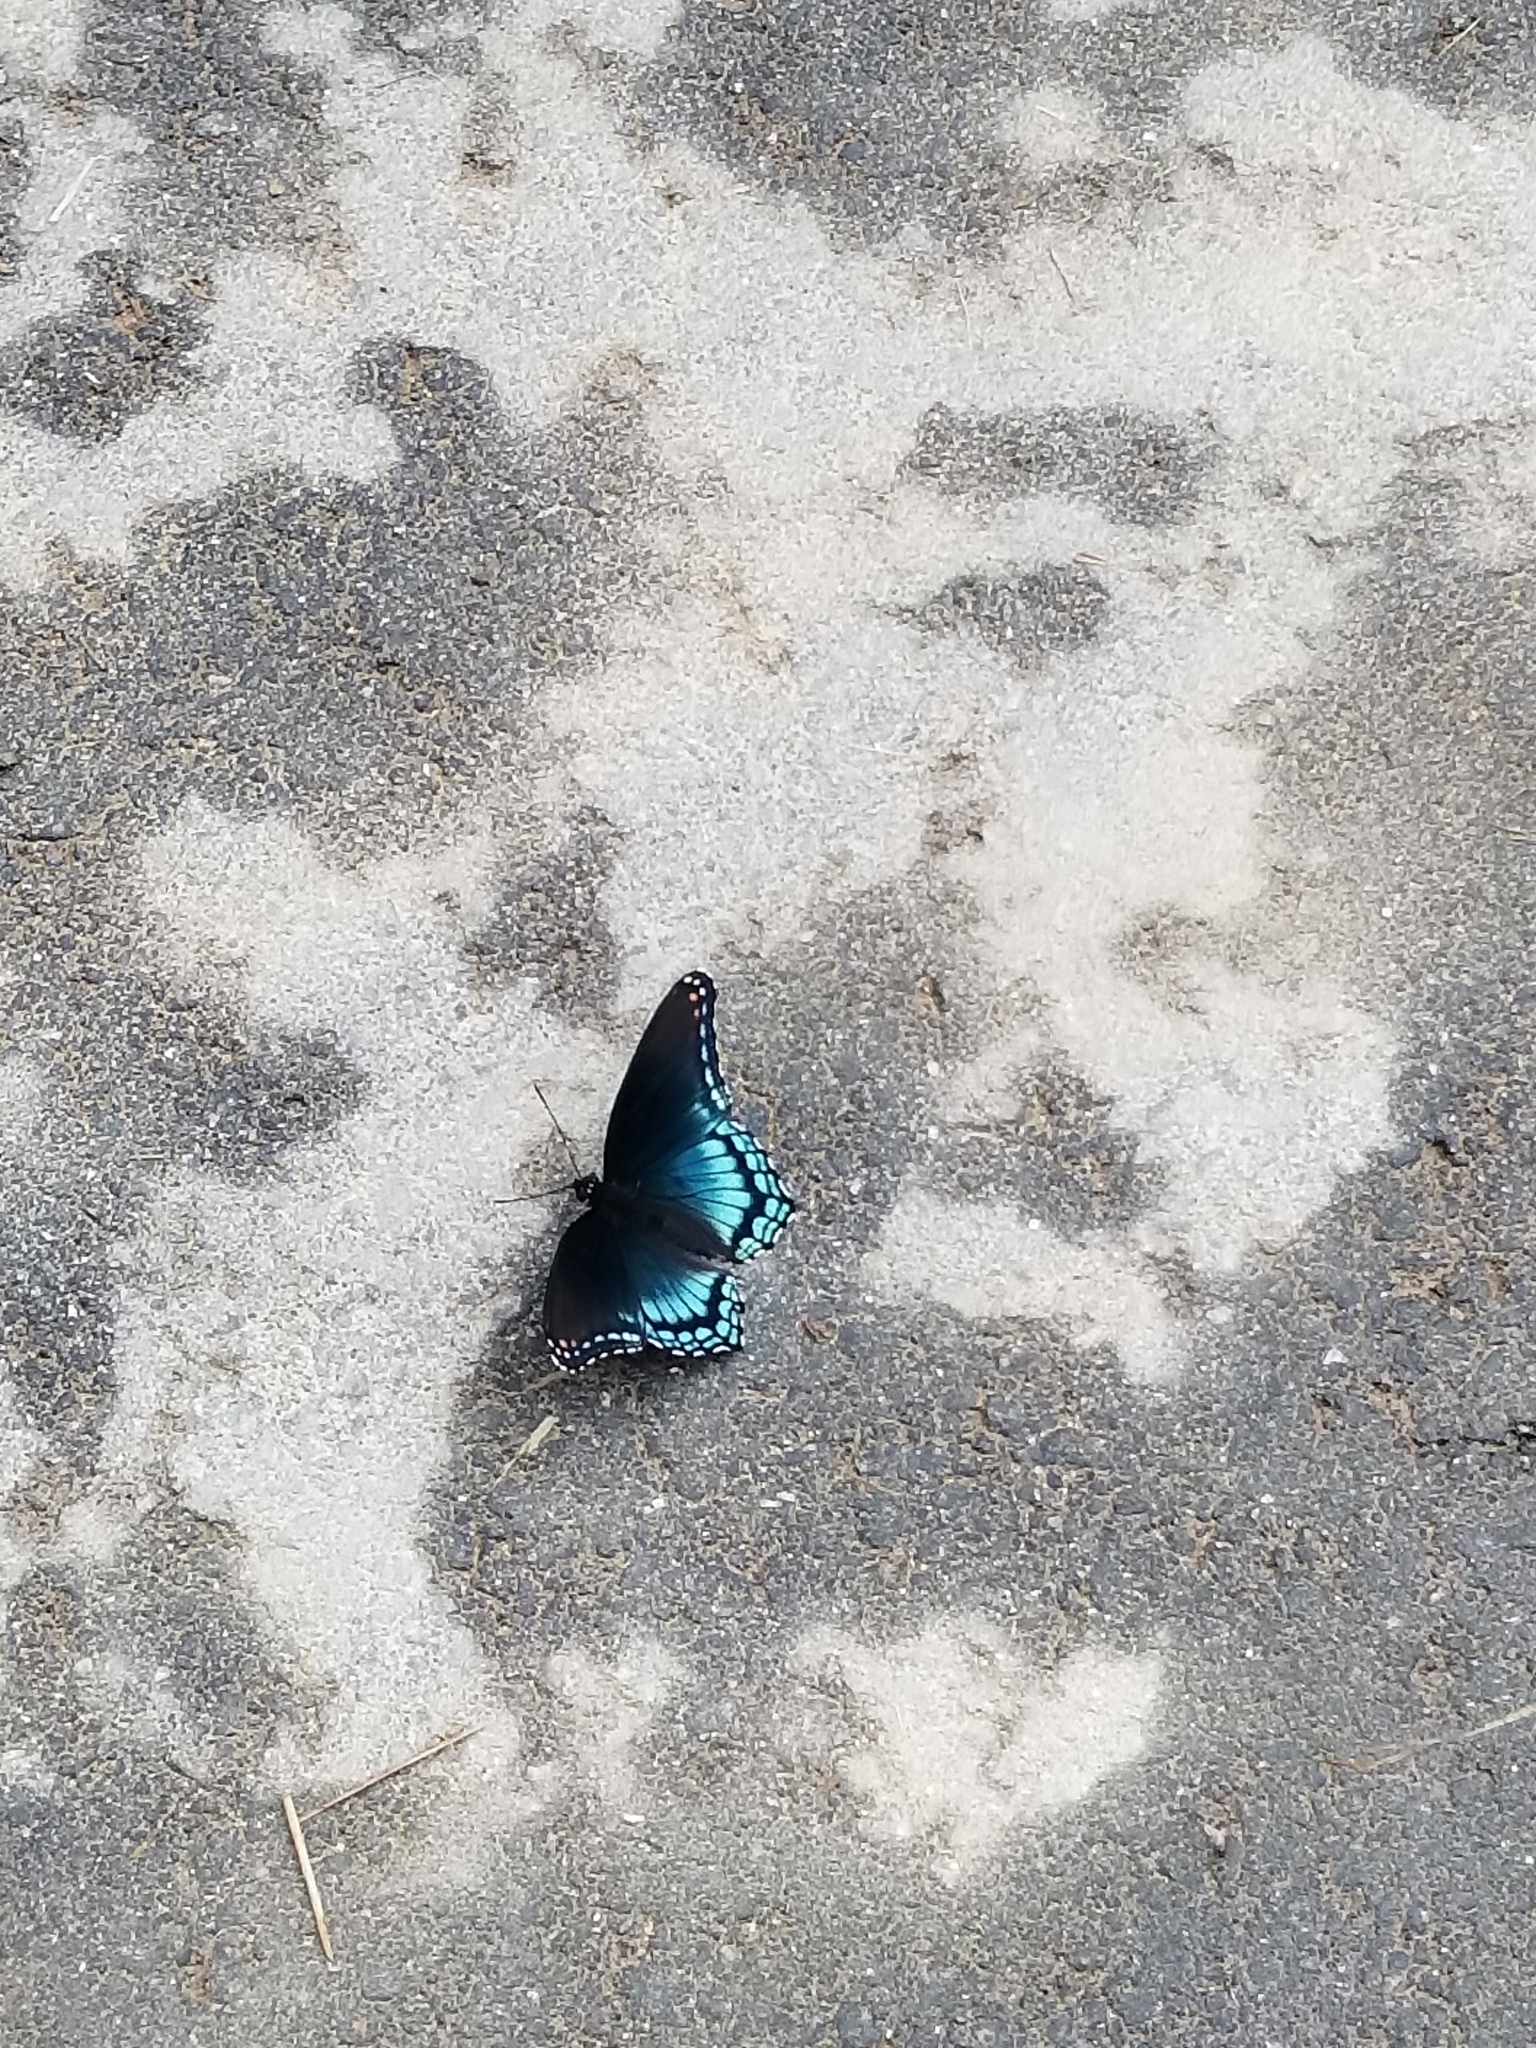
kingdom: Animalia
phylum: Arthropoda
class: Insecta
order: Lepidoptera
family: Nymphalidae
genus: Limenitis
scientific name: Limenitis arthemis
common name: Red-spotted admiral
